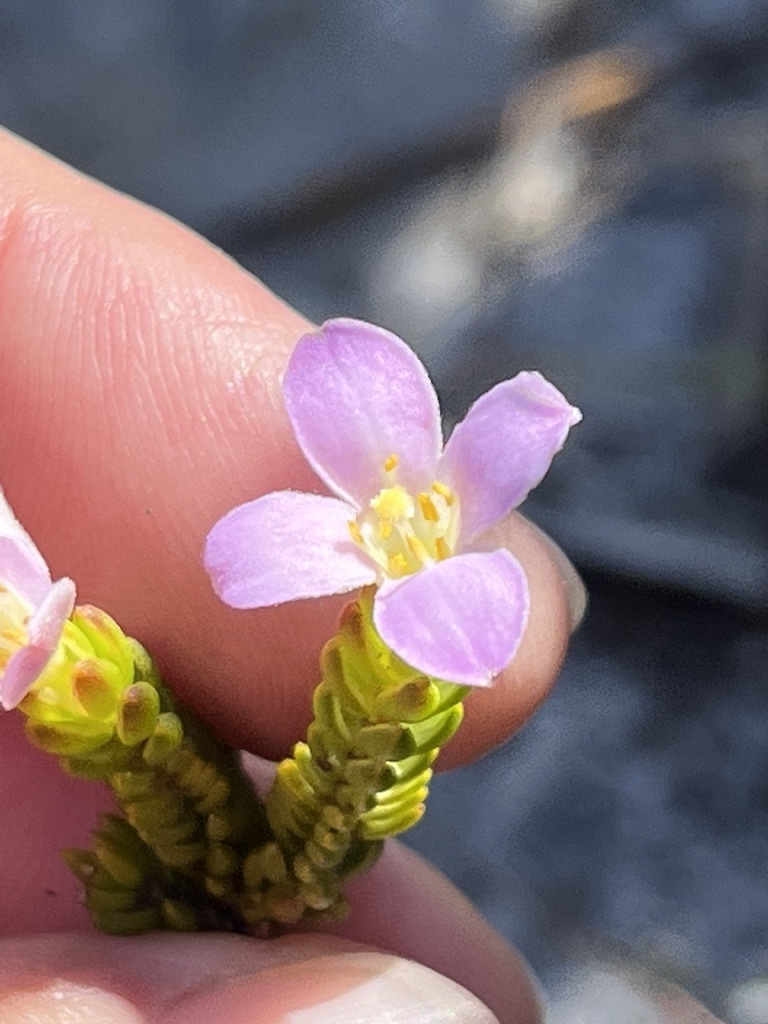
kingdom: Plantae
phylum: Tracheophyta
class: Magnoliopsida
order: Malvales
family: Thymelaeaceae
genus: Lachnaea
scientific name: Lachnaea grandiflora
